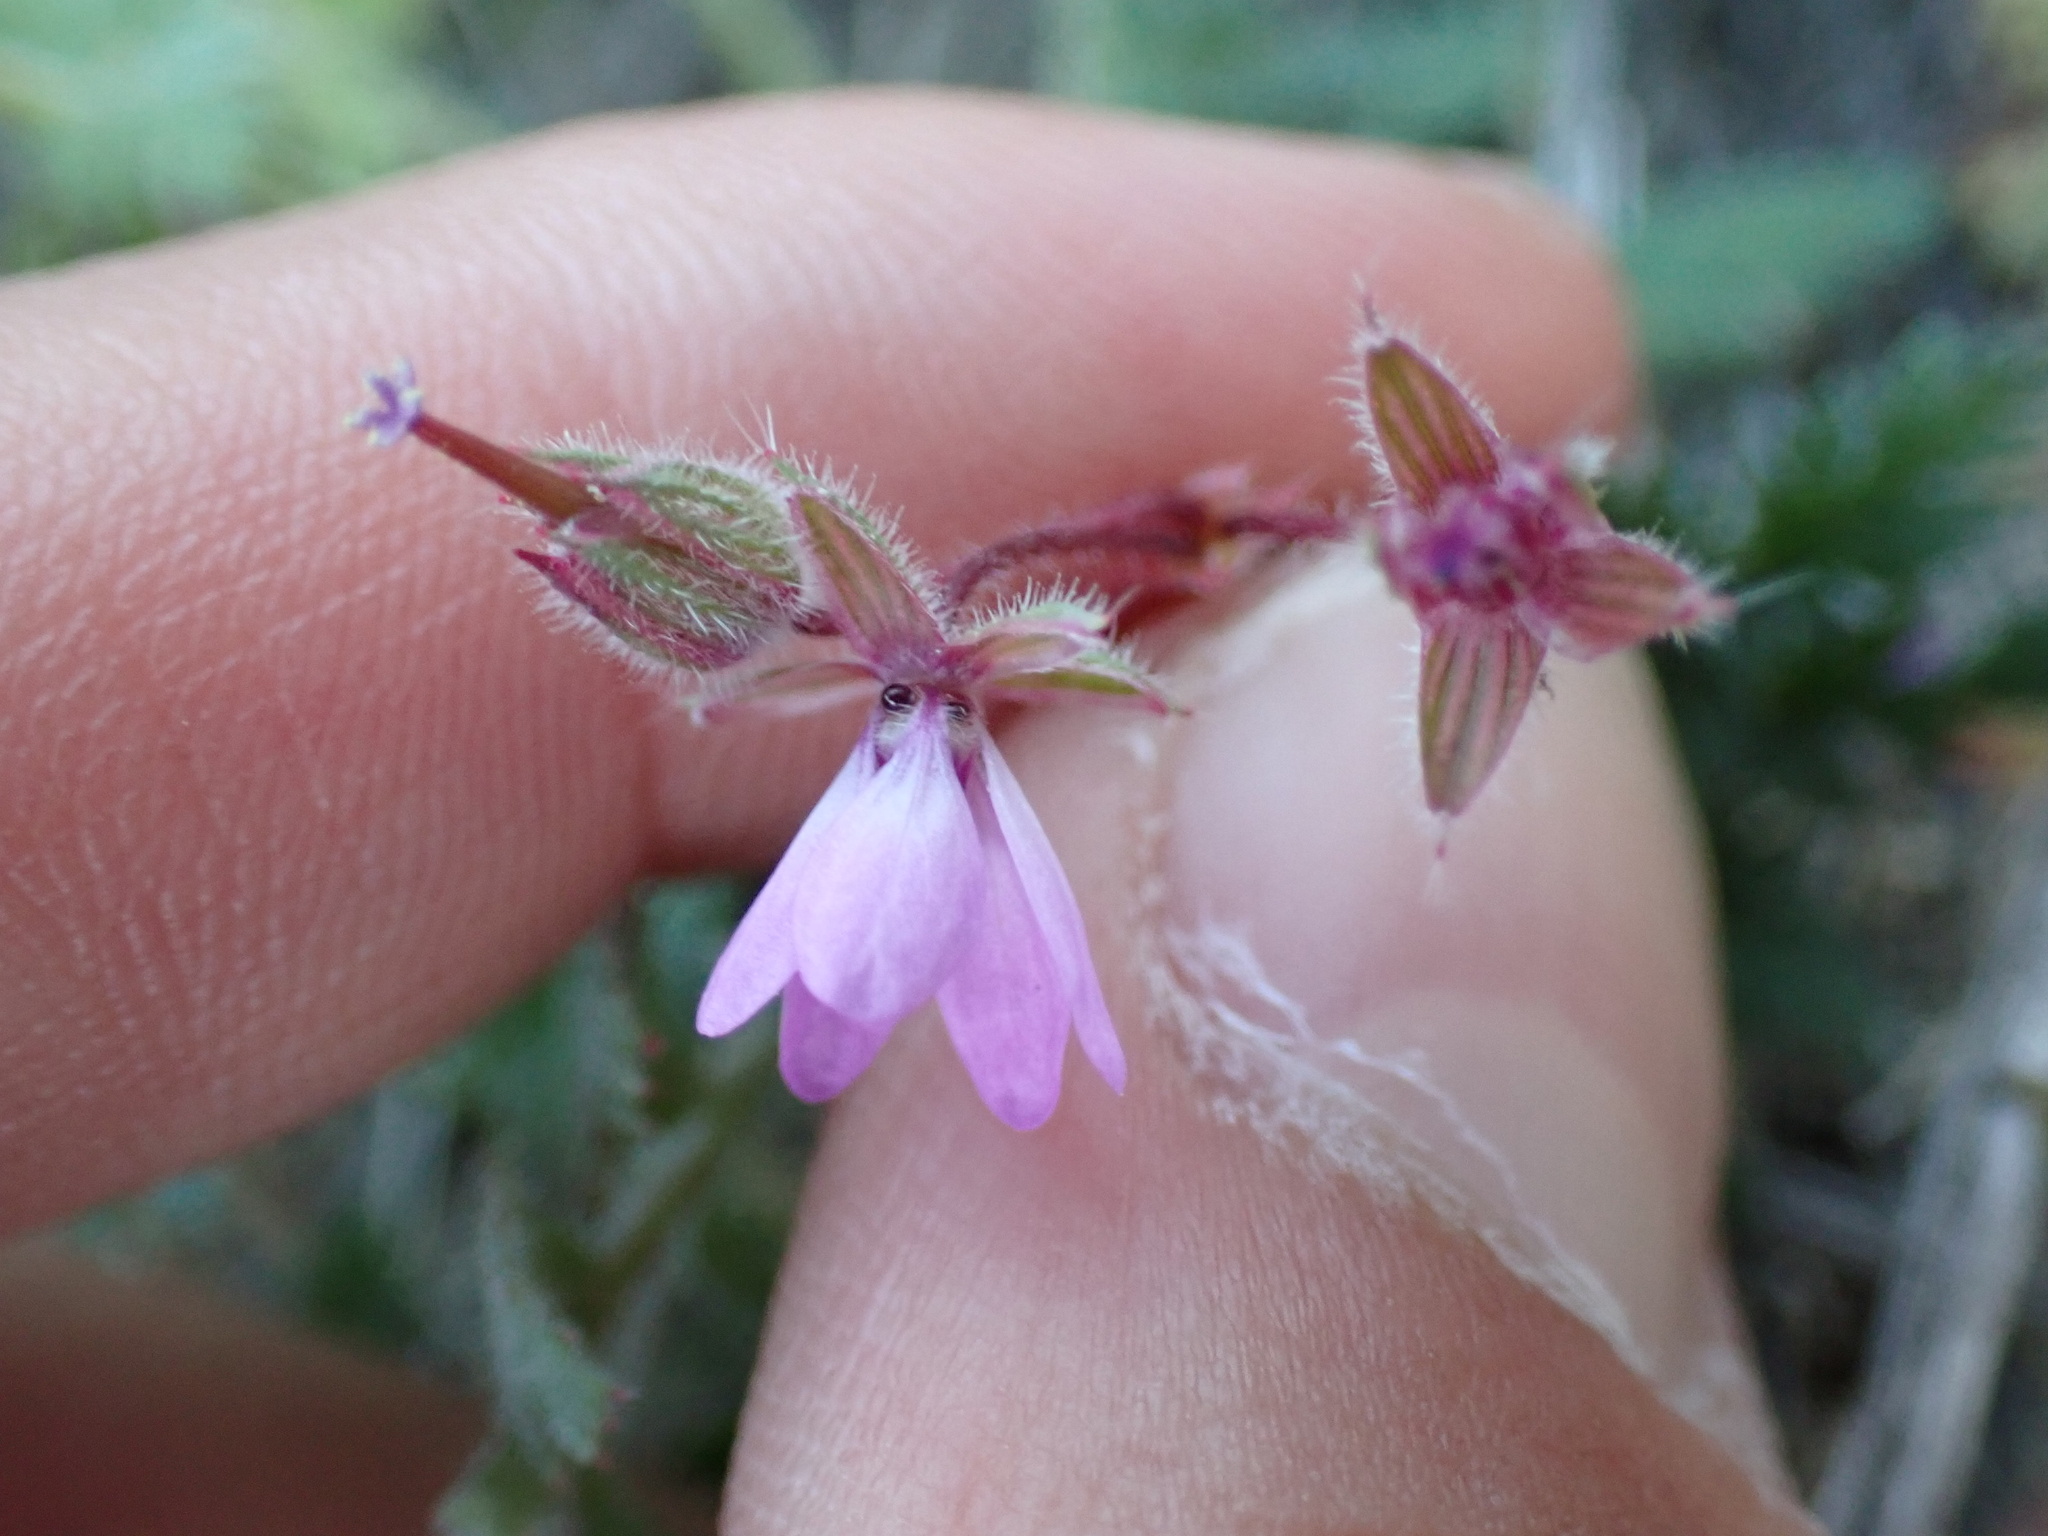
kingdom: Plantae
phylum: Tracheophyta
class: Magnoliopsida
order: Geraniales
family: Geraniaceae
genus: Erodium
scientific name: Erodium cicutarium
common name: Common stork's-bill
